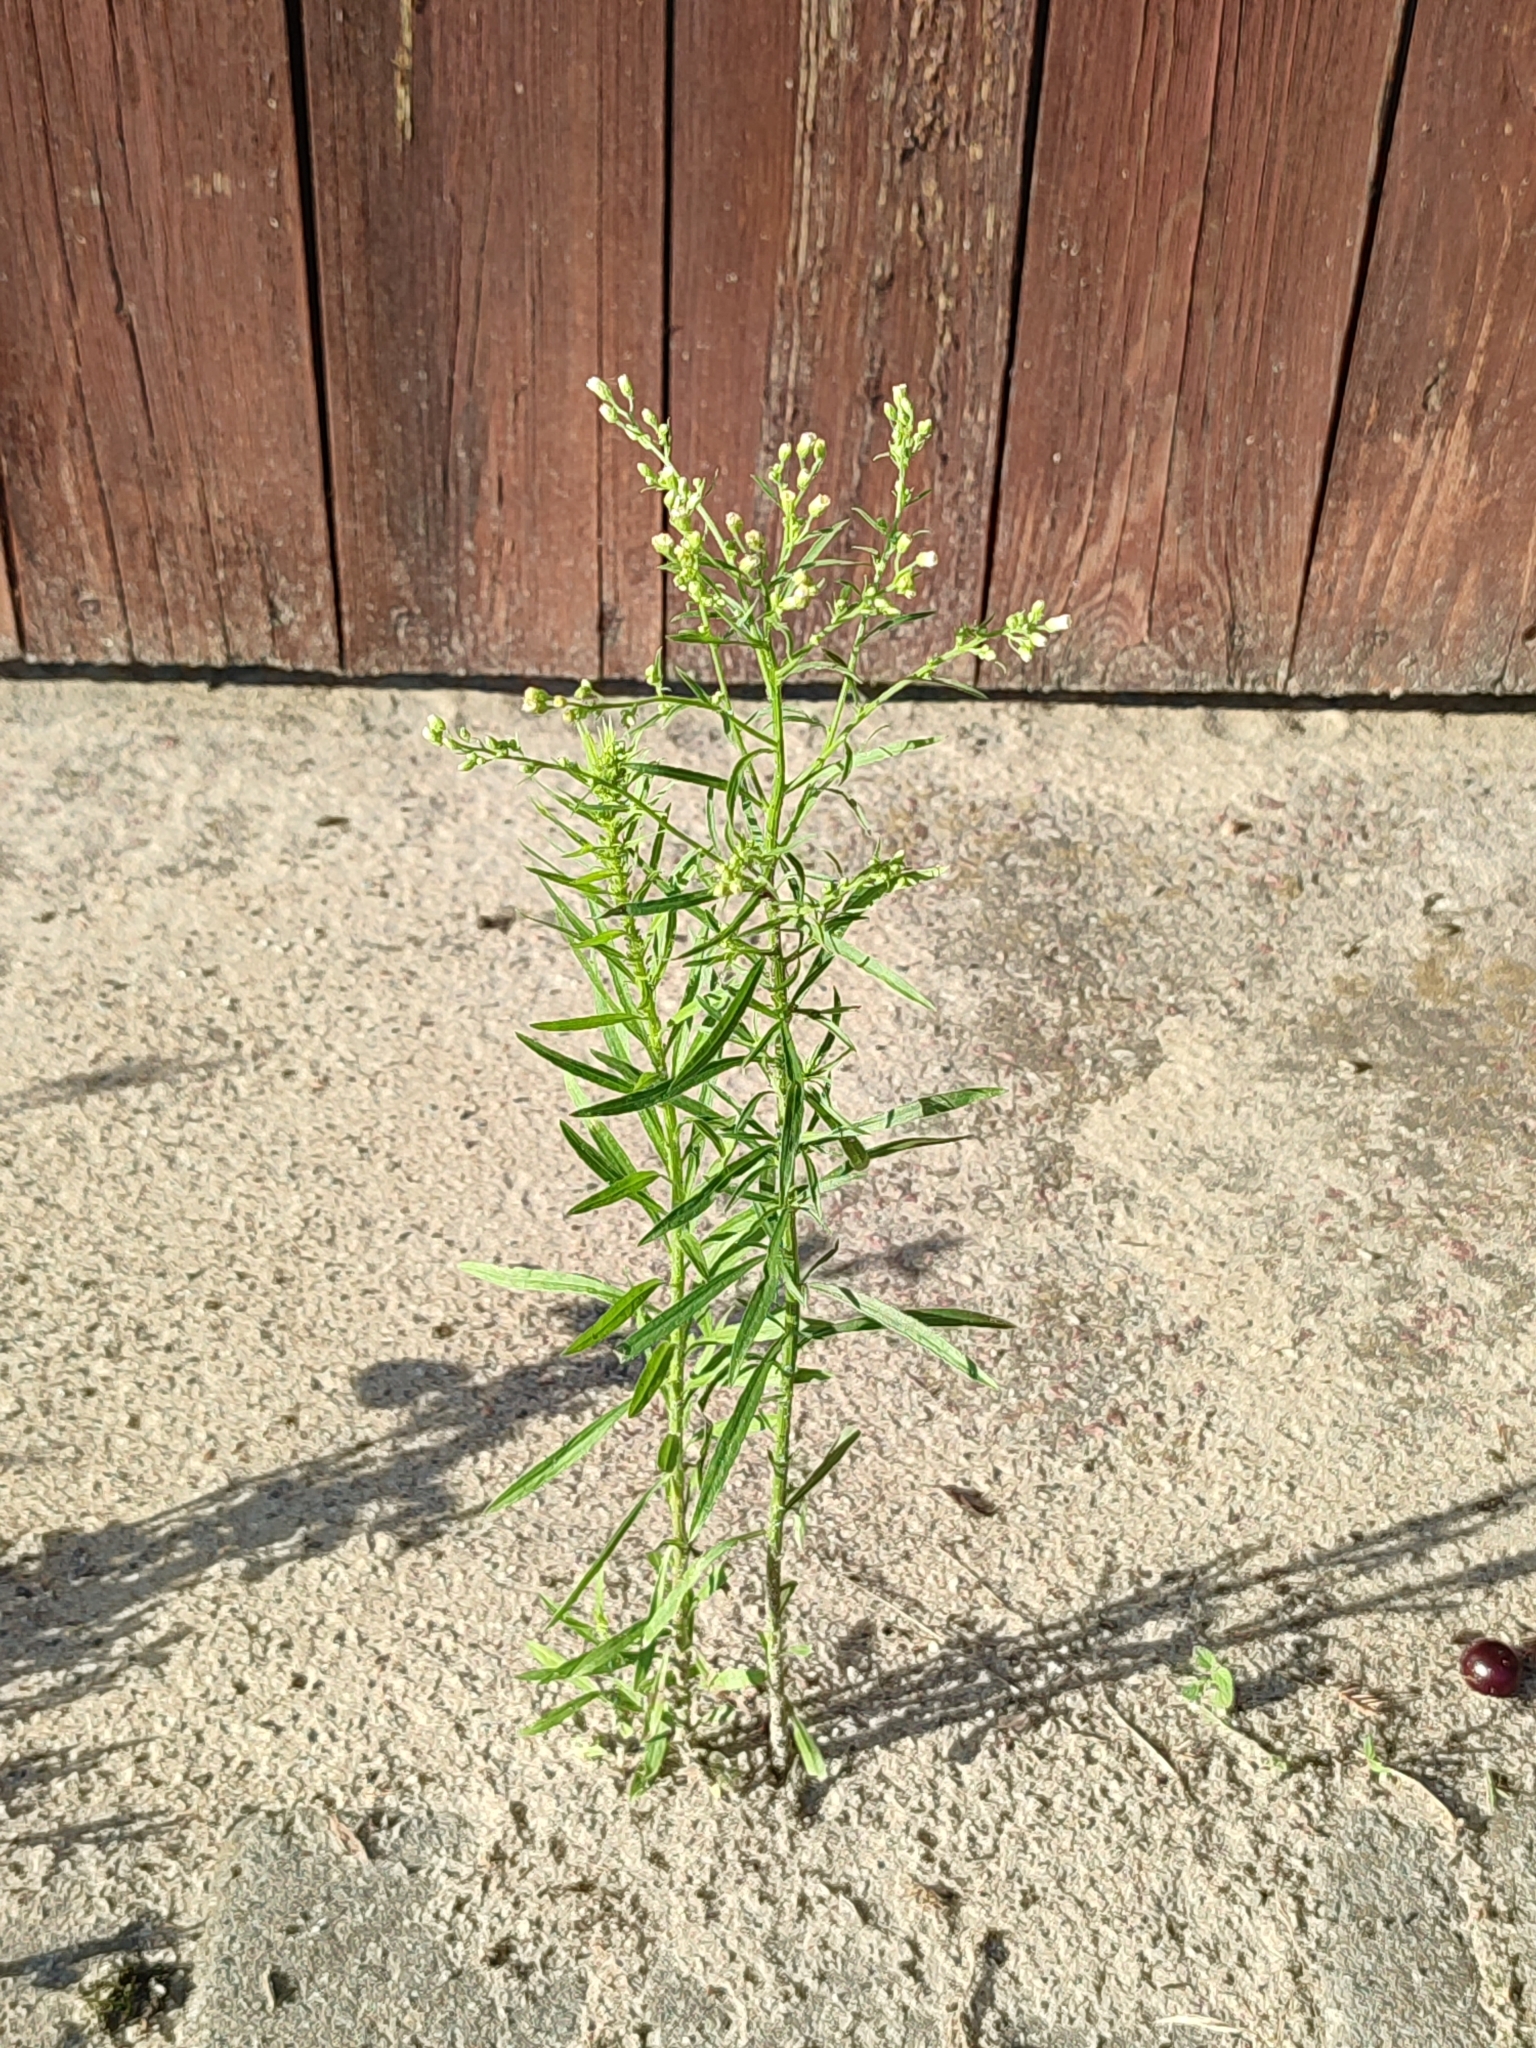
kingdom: Plantae
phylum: Tracheophyta
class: Magnoliopsida
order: Asterales
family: Asteraceae
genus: Erigeron
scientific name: Erigeron canadensis
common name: Canadian fleabane
